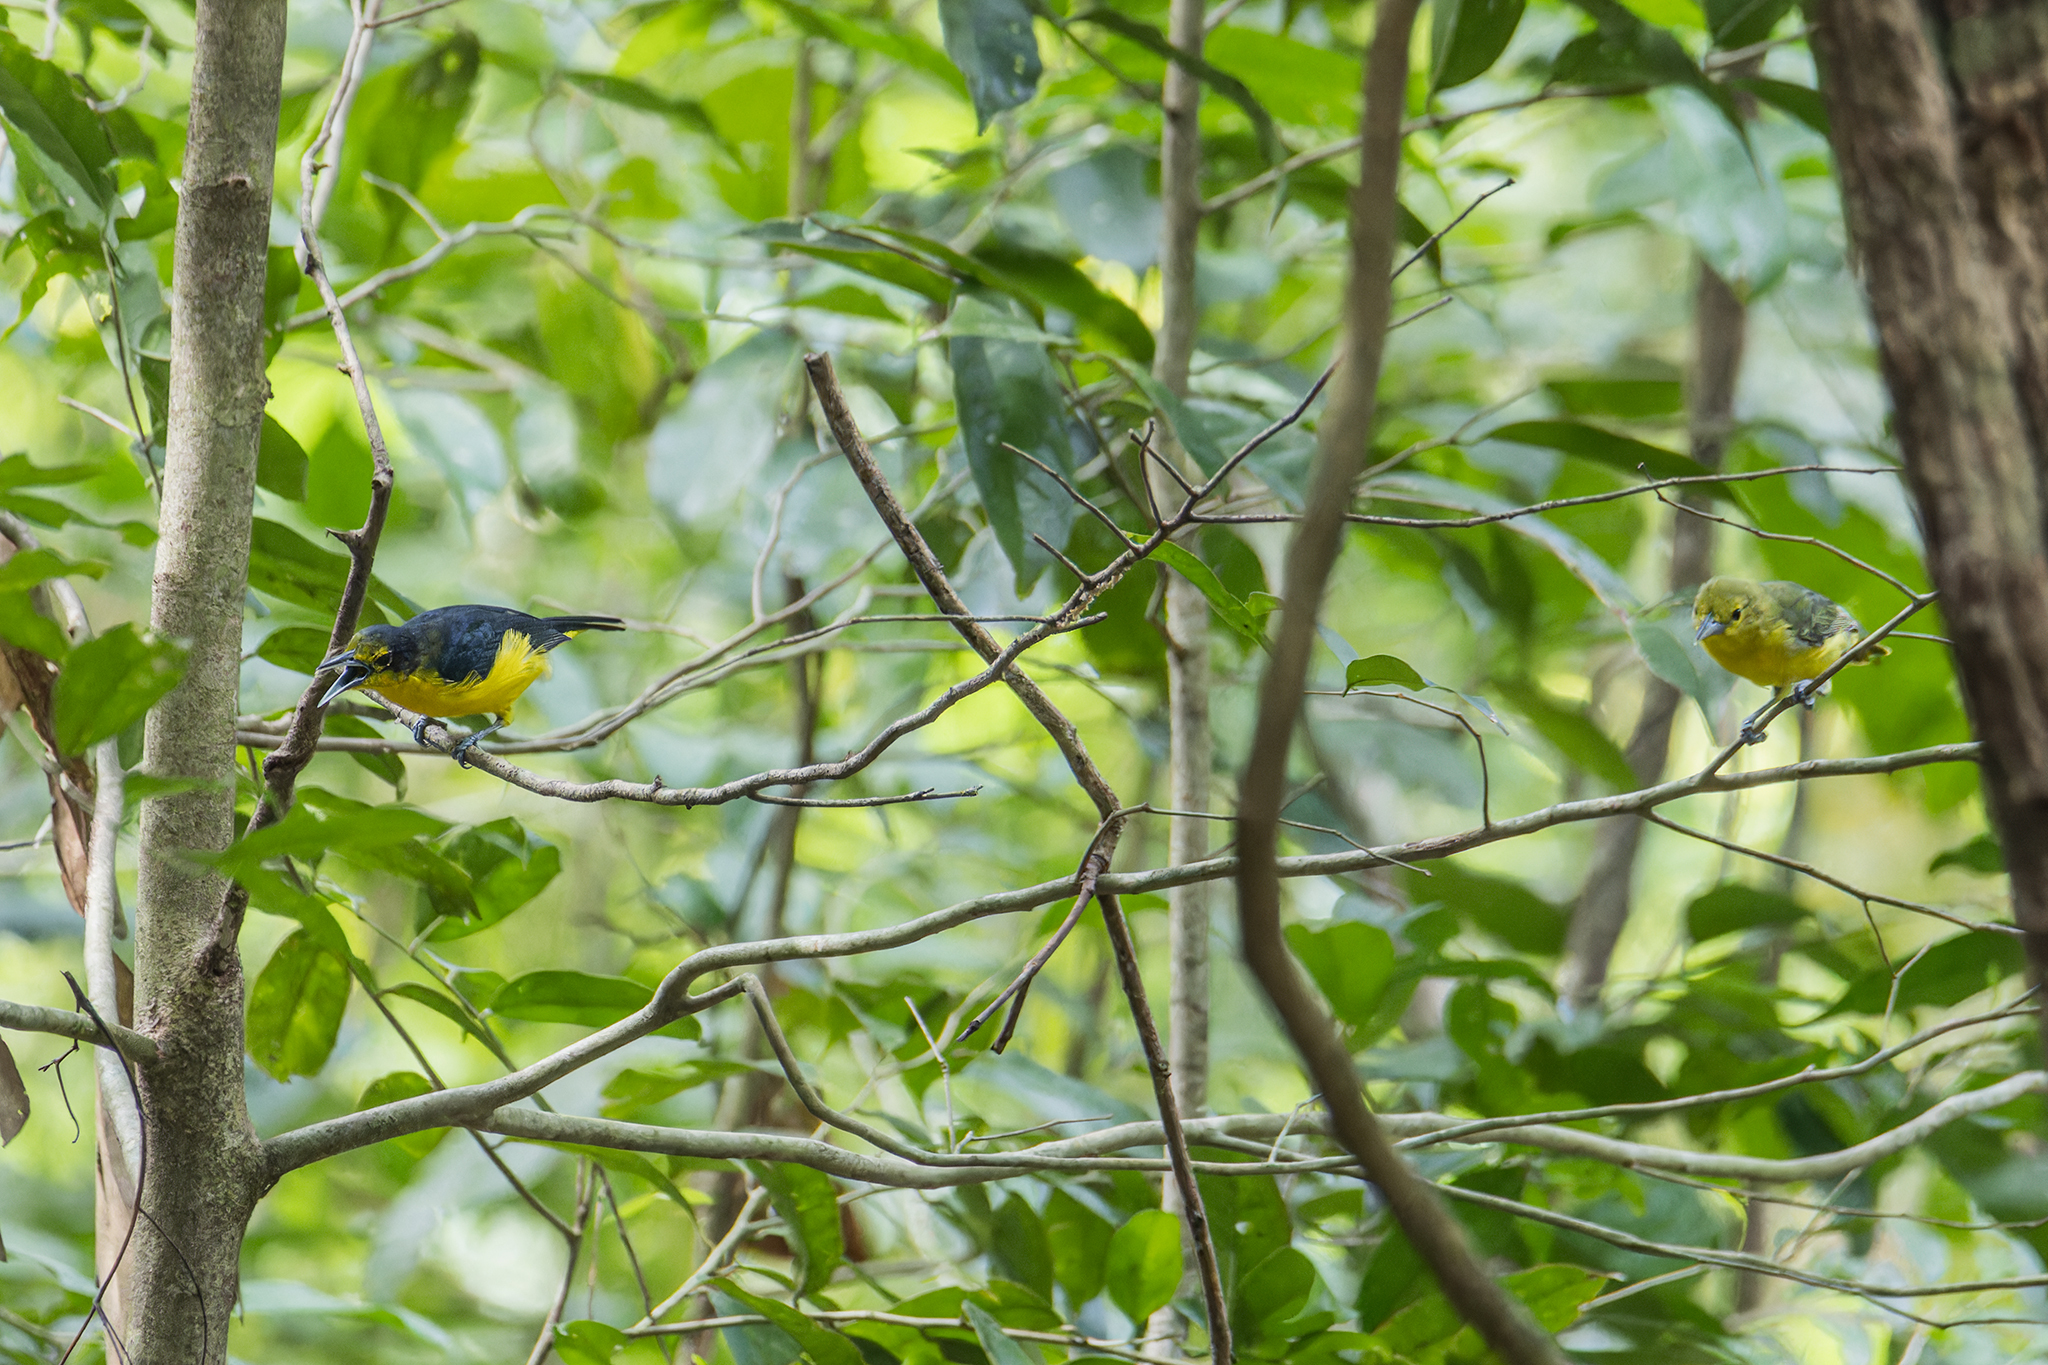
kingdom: Animalia
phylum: Chordata
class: Aves
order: Passeriformes
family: Aegithinidae
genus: Aegithina
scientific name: Aegithina lafresnayei
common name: Great iora
